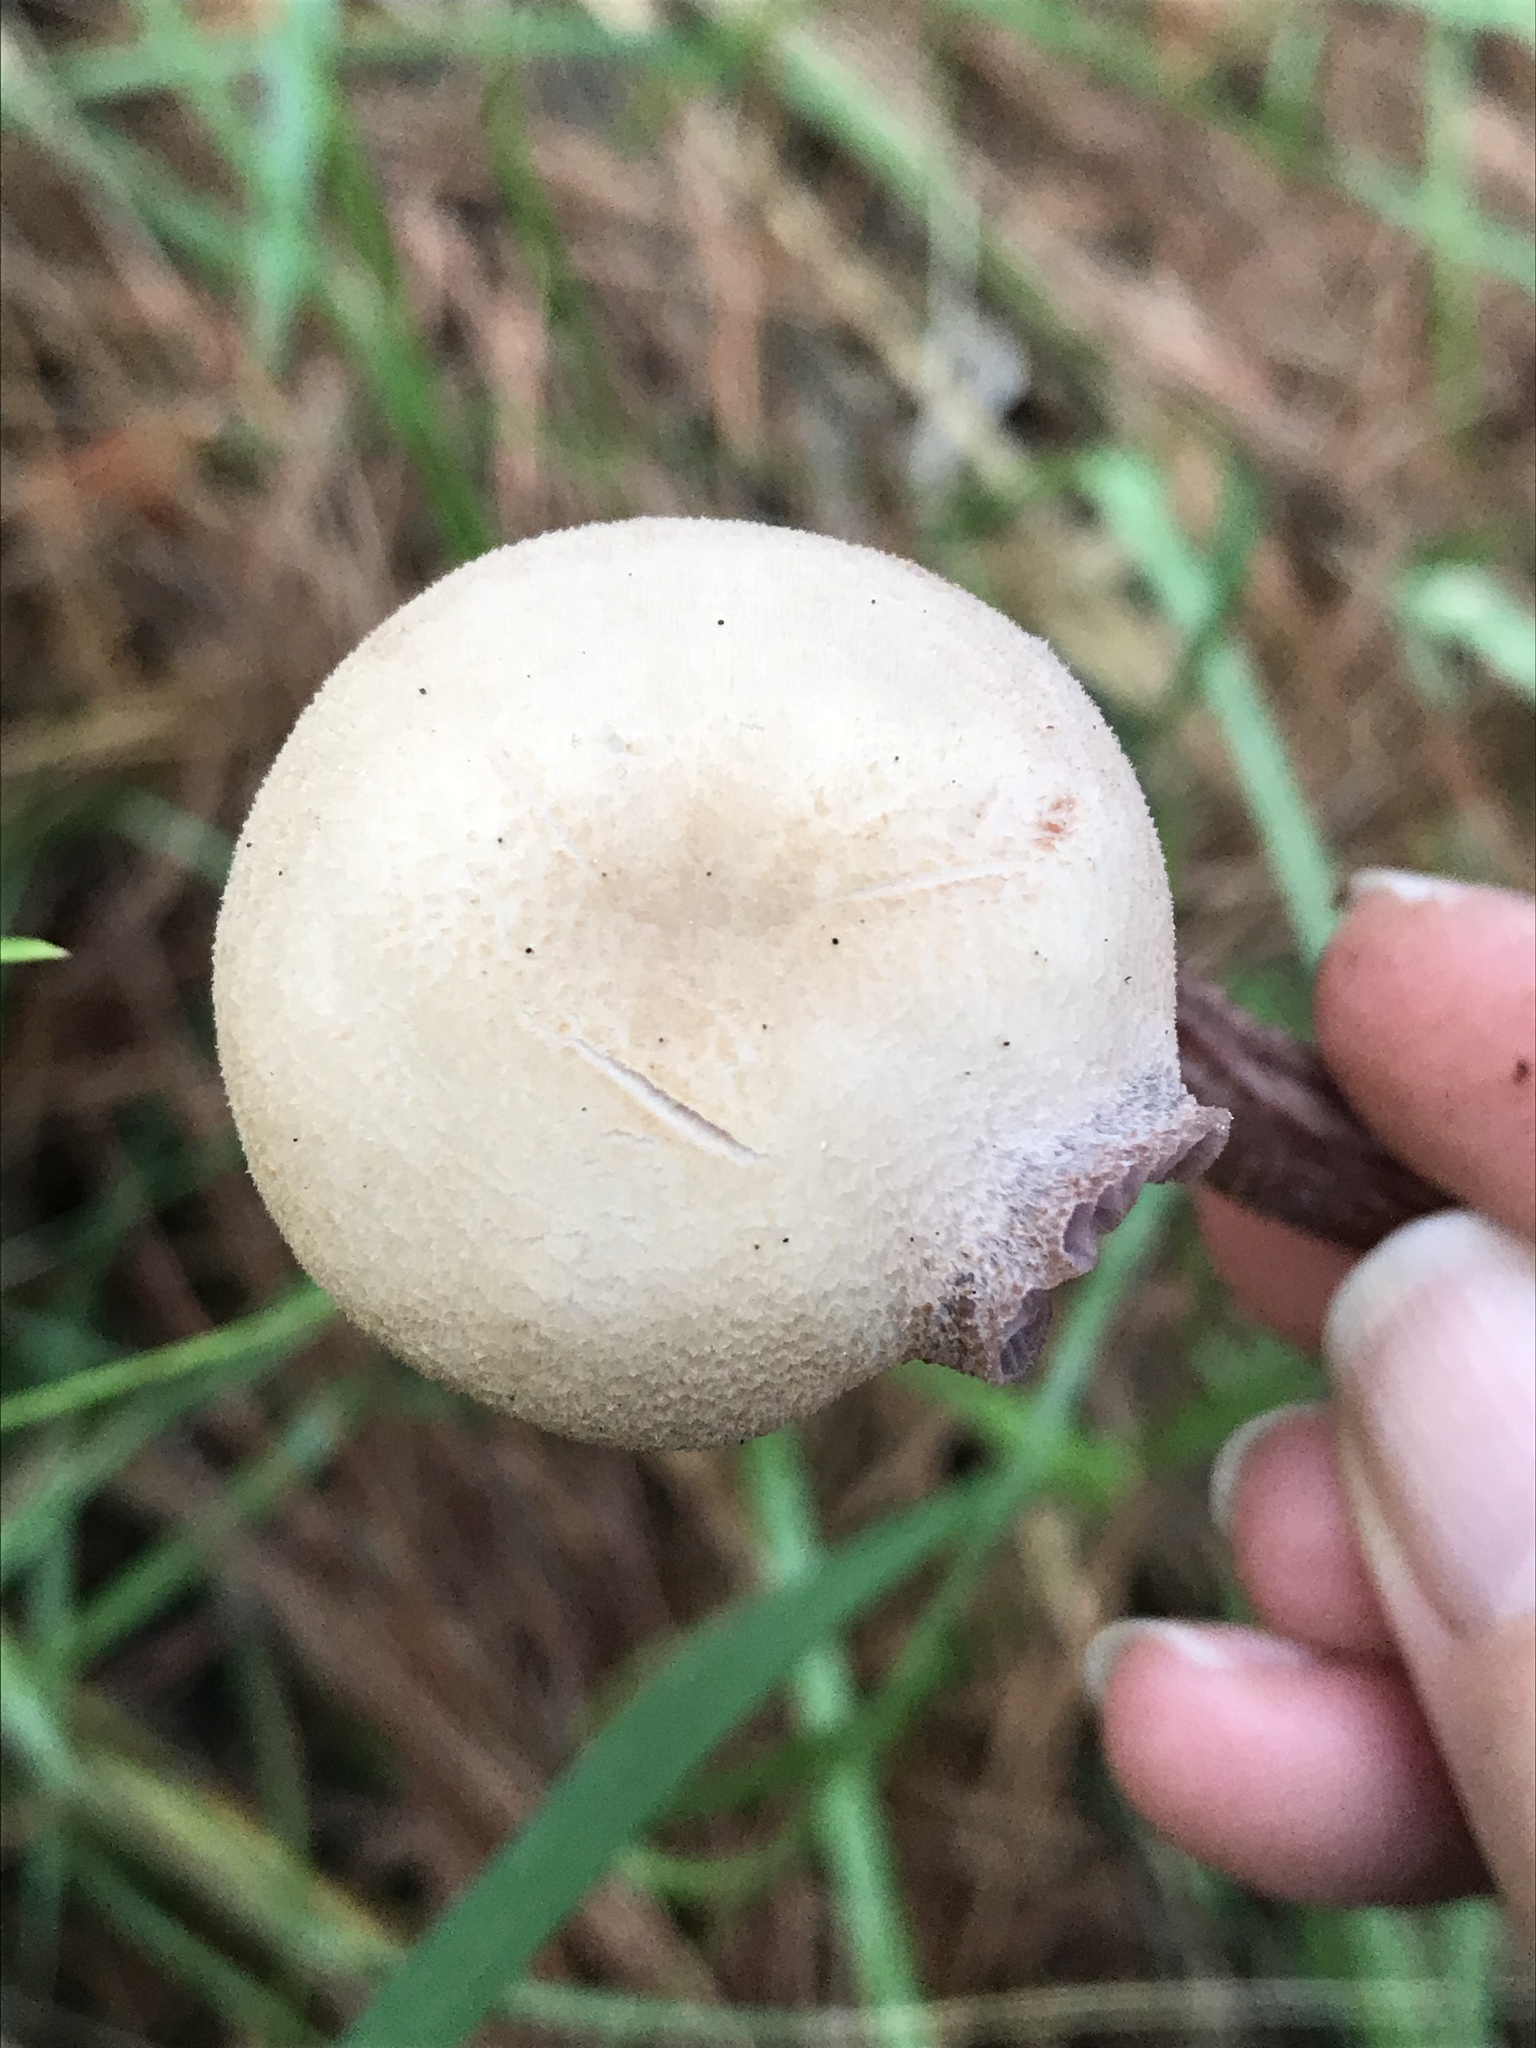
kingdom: Fungi
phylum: Basidiomycota
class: Agaricomycetes
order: Agaricales
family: Hydnangiaceae
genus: Laccaria
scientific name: Laccaria amethysteo-occidentalis
